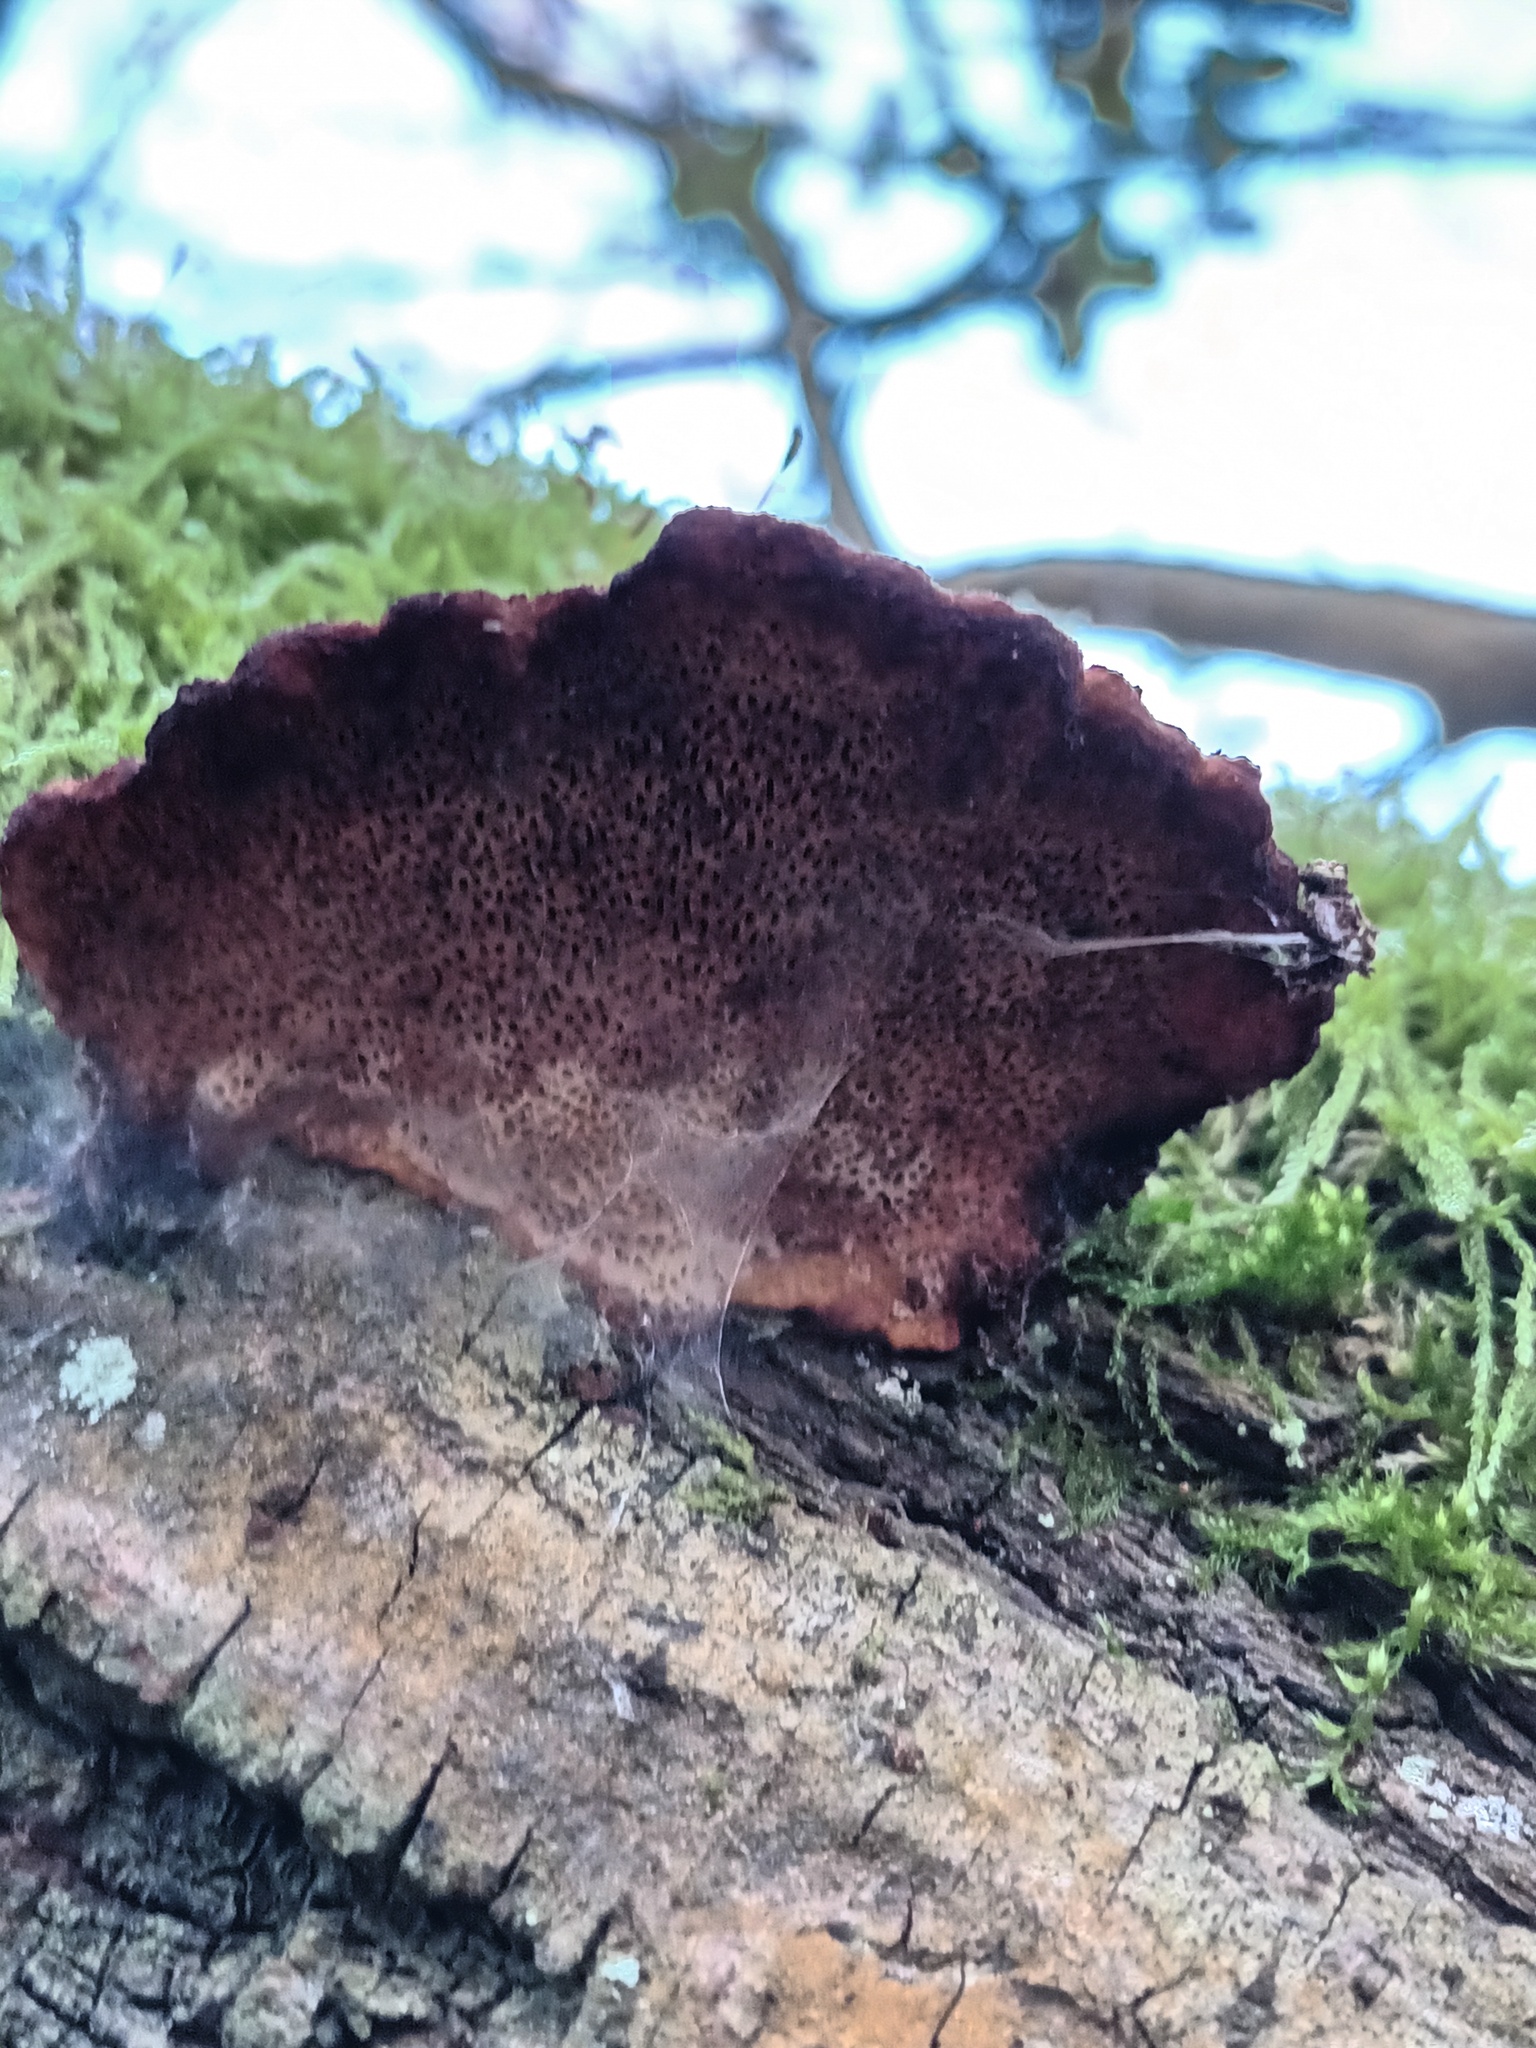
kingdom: Fungi
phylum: Basidiomycota
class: Agaricomycetes
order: Polyporales
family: Polyporaceae
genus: Daedaleopsis
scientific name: Daedaleopsis confragosa
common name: Blushing bracket
